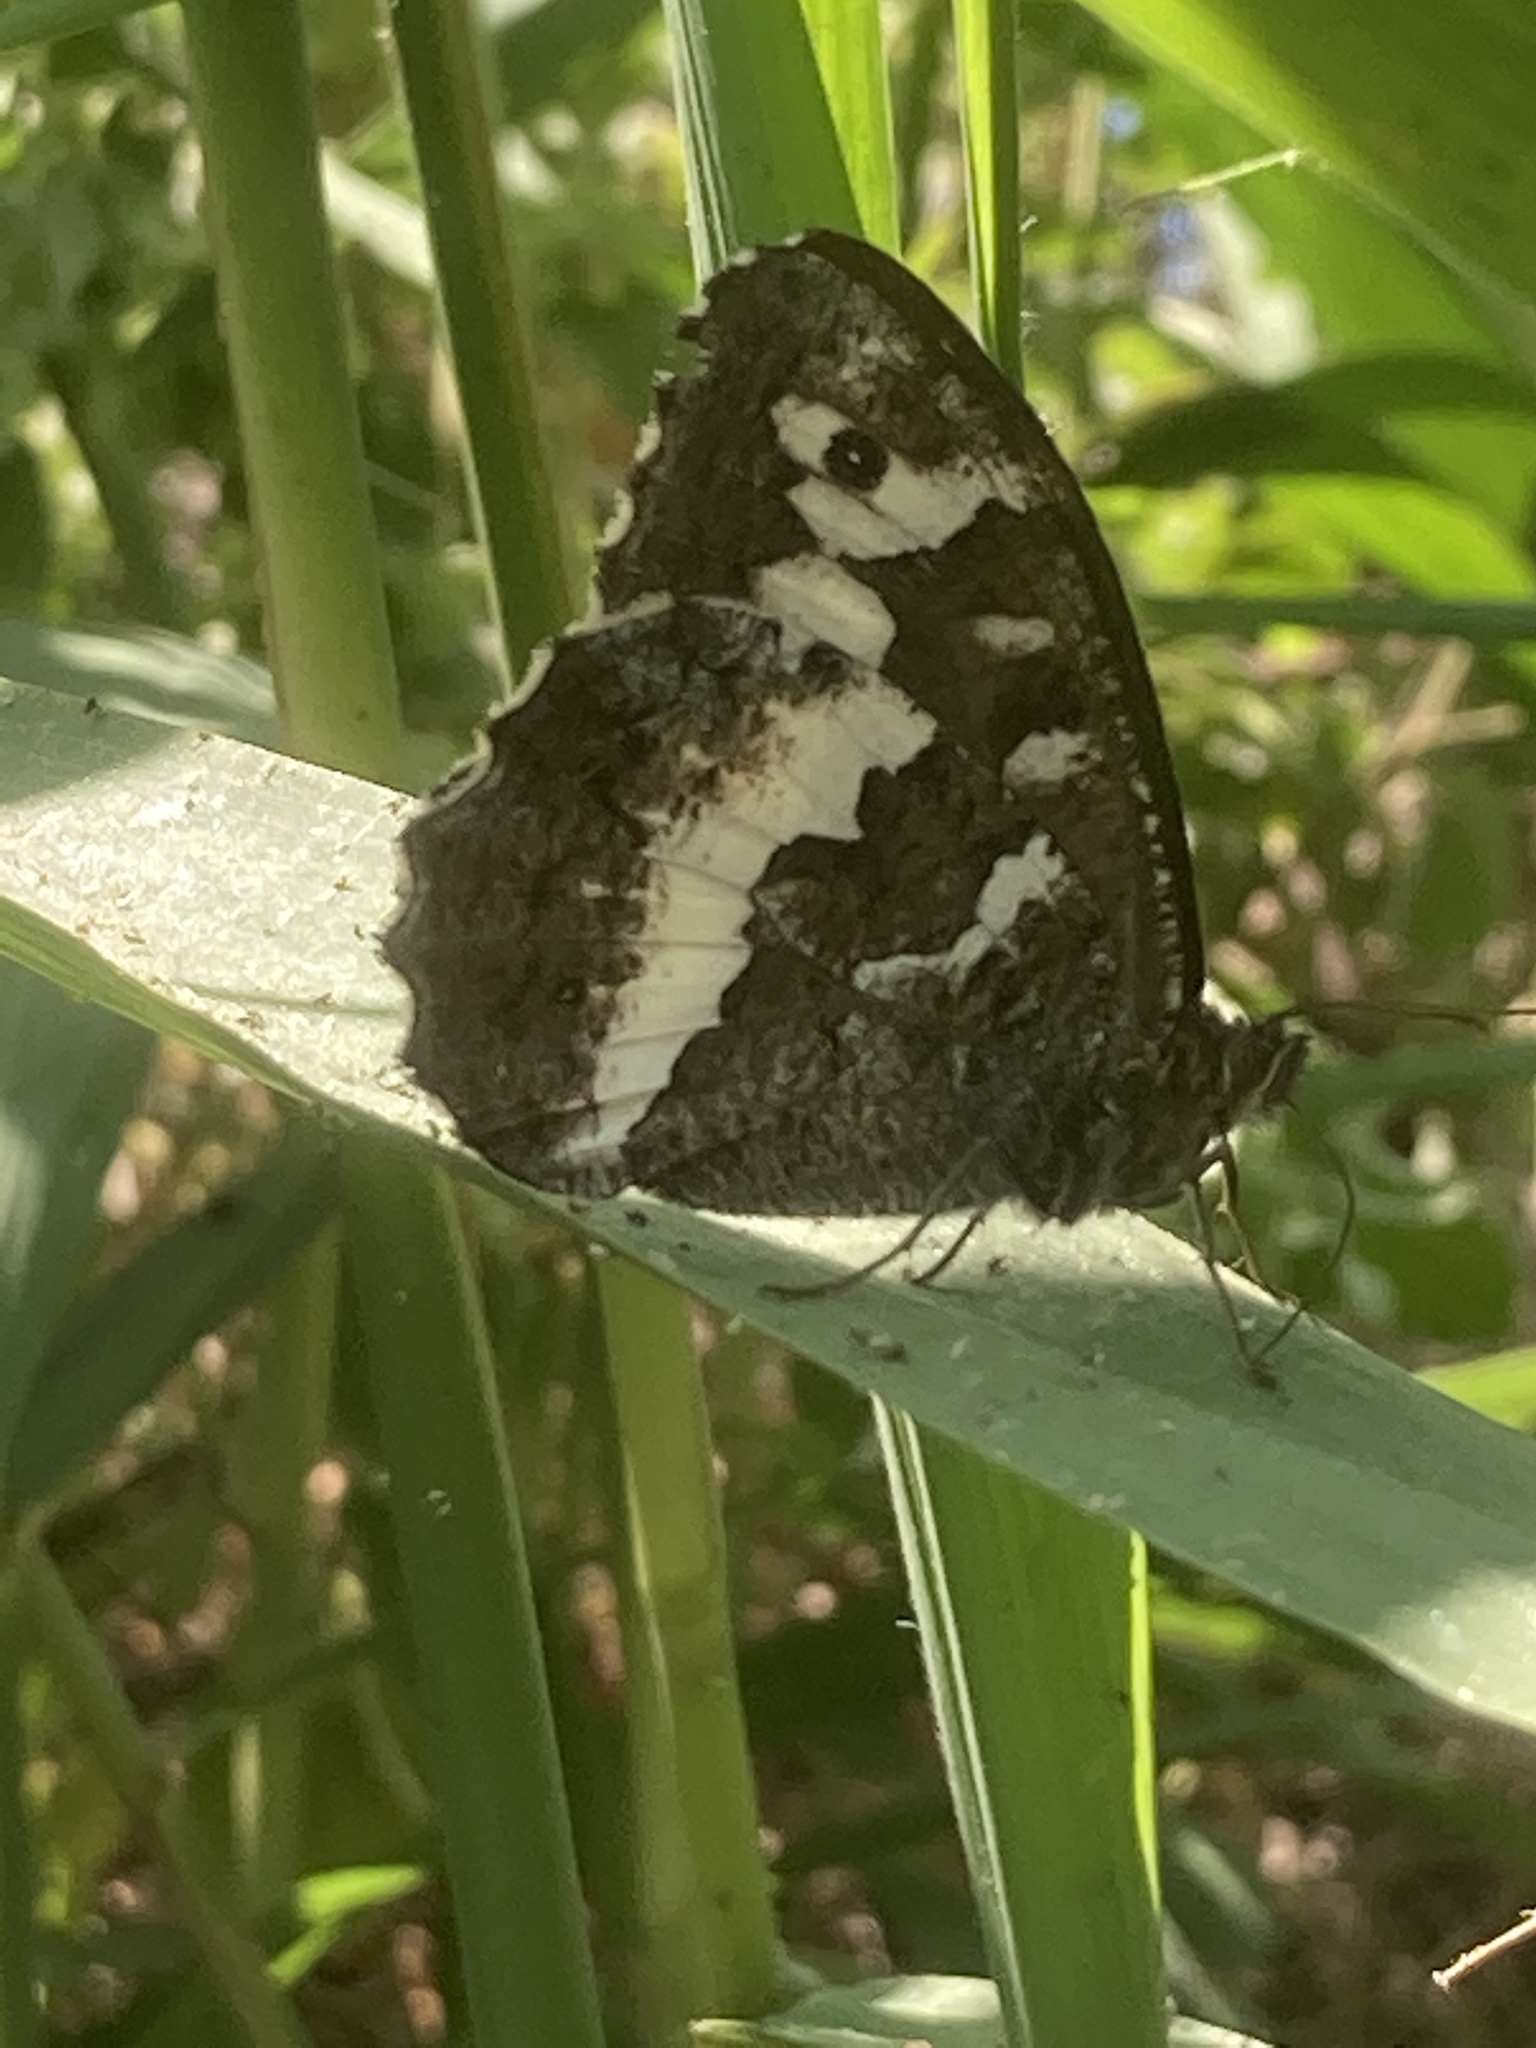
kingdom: Animalia
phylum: Arthropoda
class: Insecta
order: Lepidoptera
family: Lycaenidae
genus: Loweia
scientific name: Loweia tityrus
